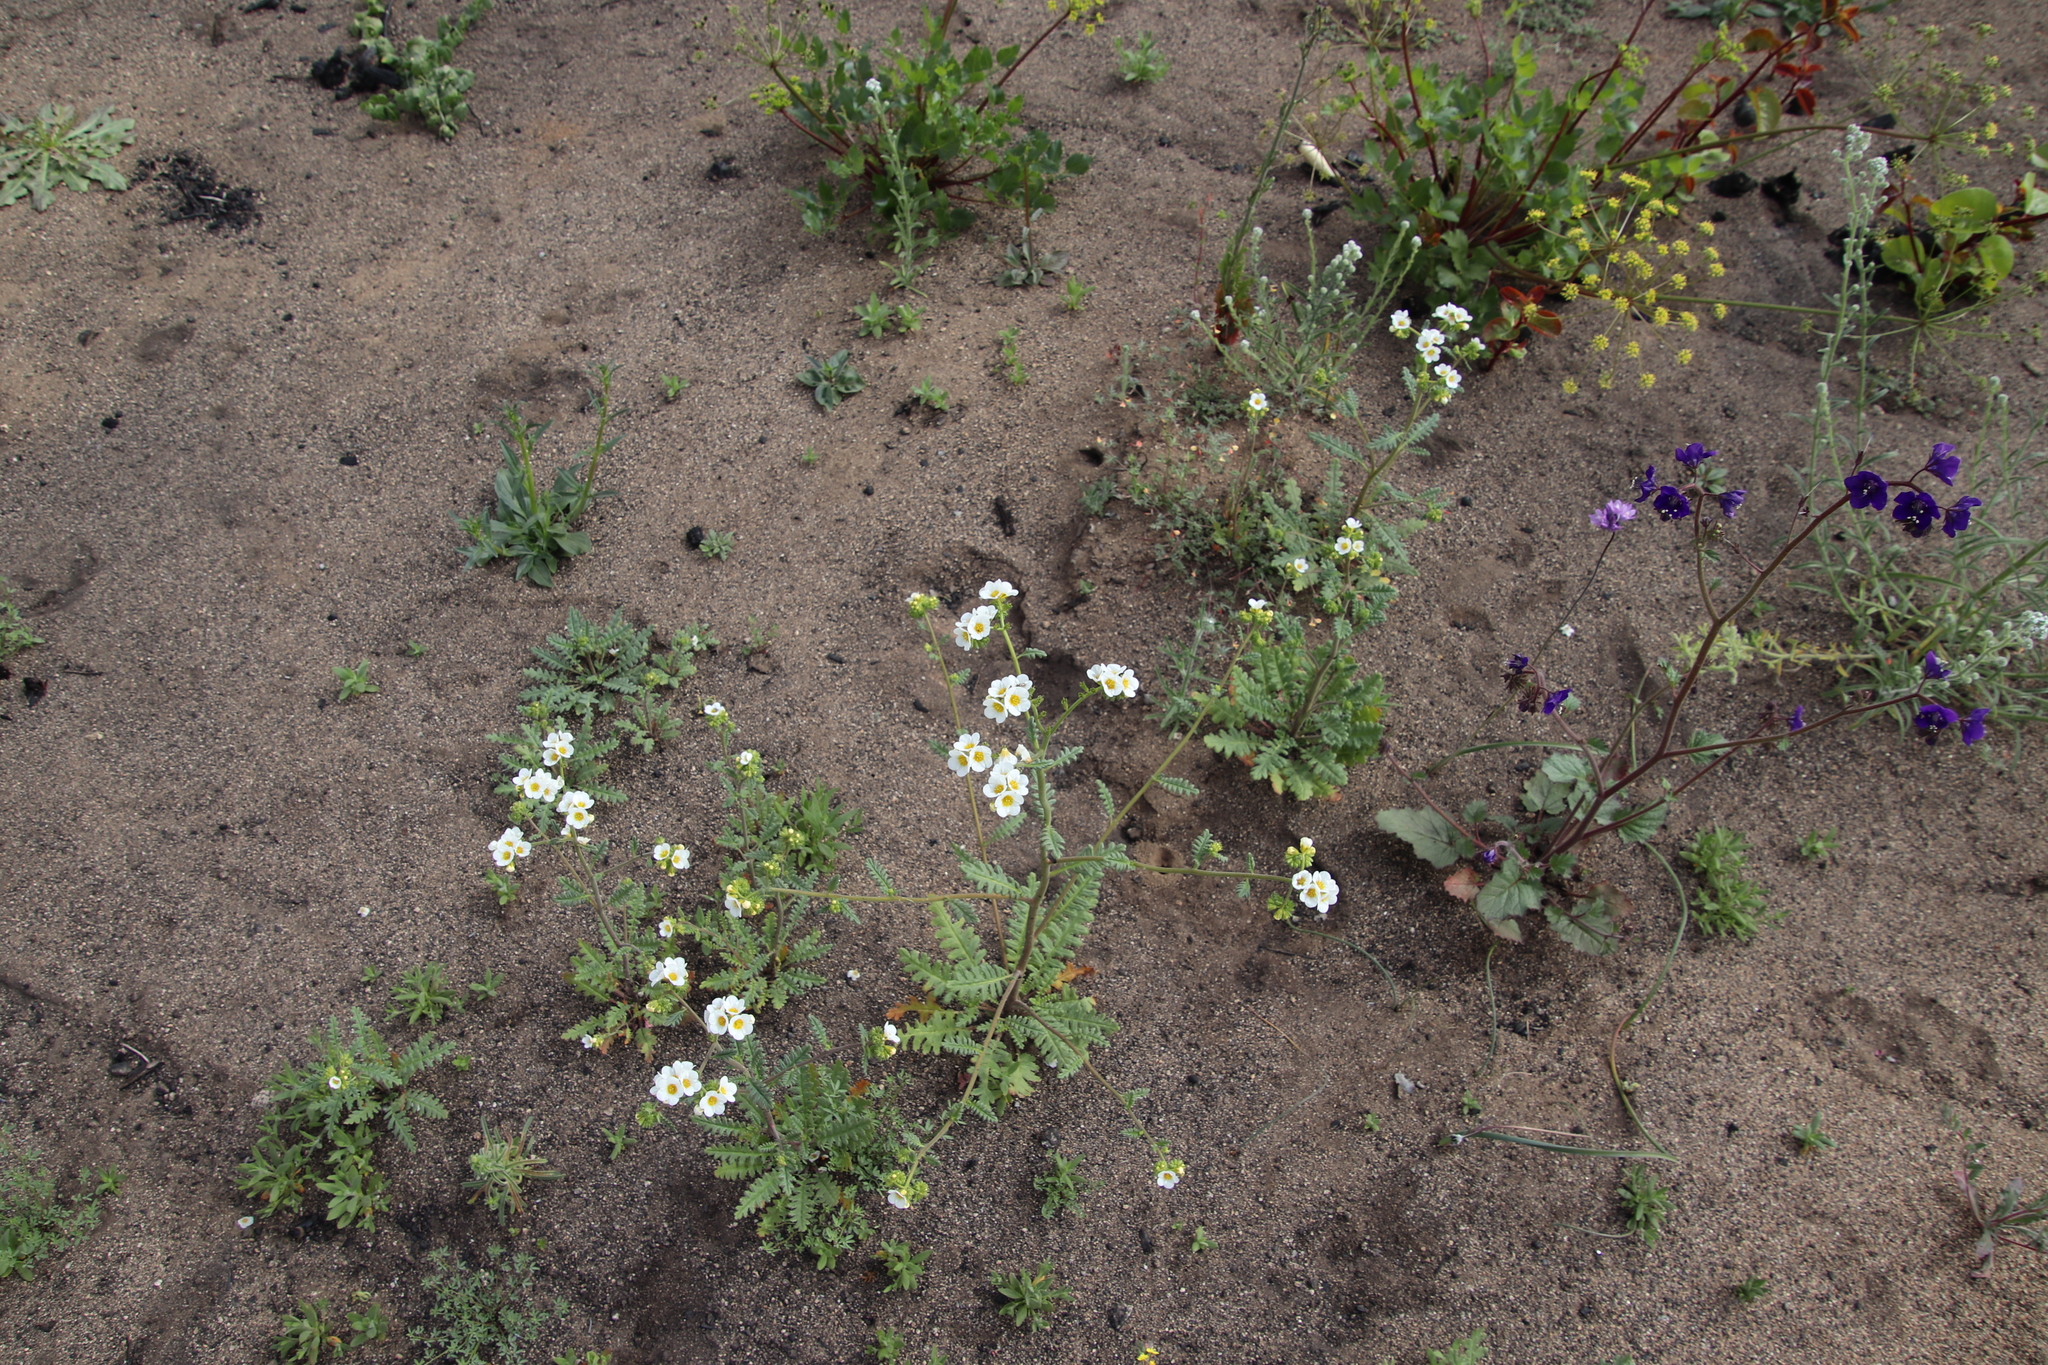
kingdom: Plantae
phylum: Tracheophyta
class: Magnoliopsida
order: Boraginales
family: Hydrophyllaceae
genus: Phacelia
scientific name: Phacelia brachyloba
